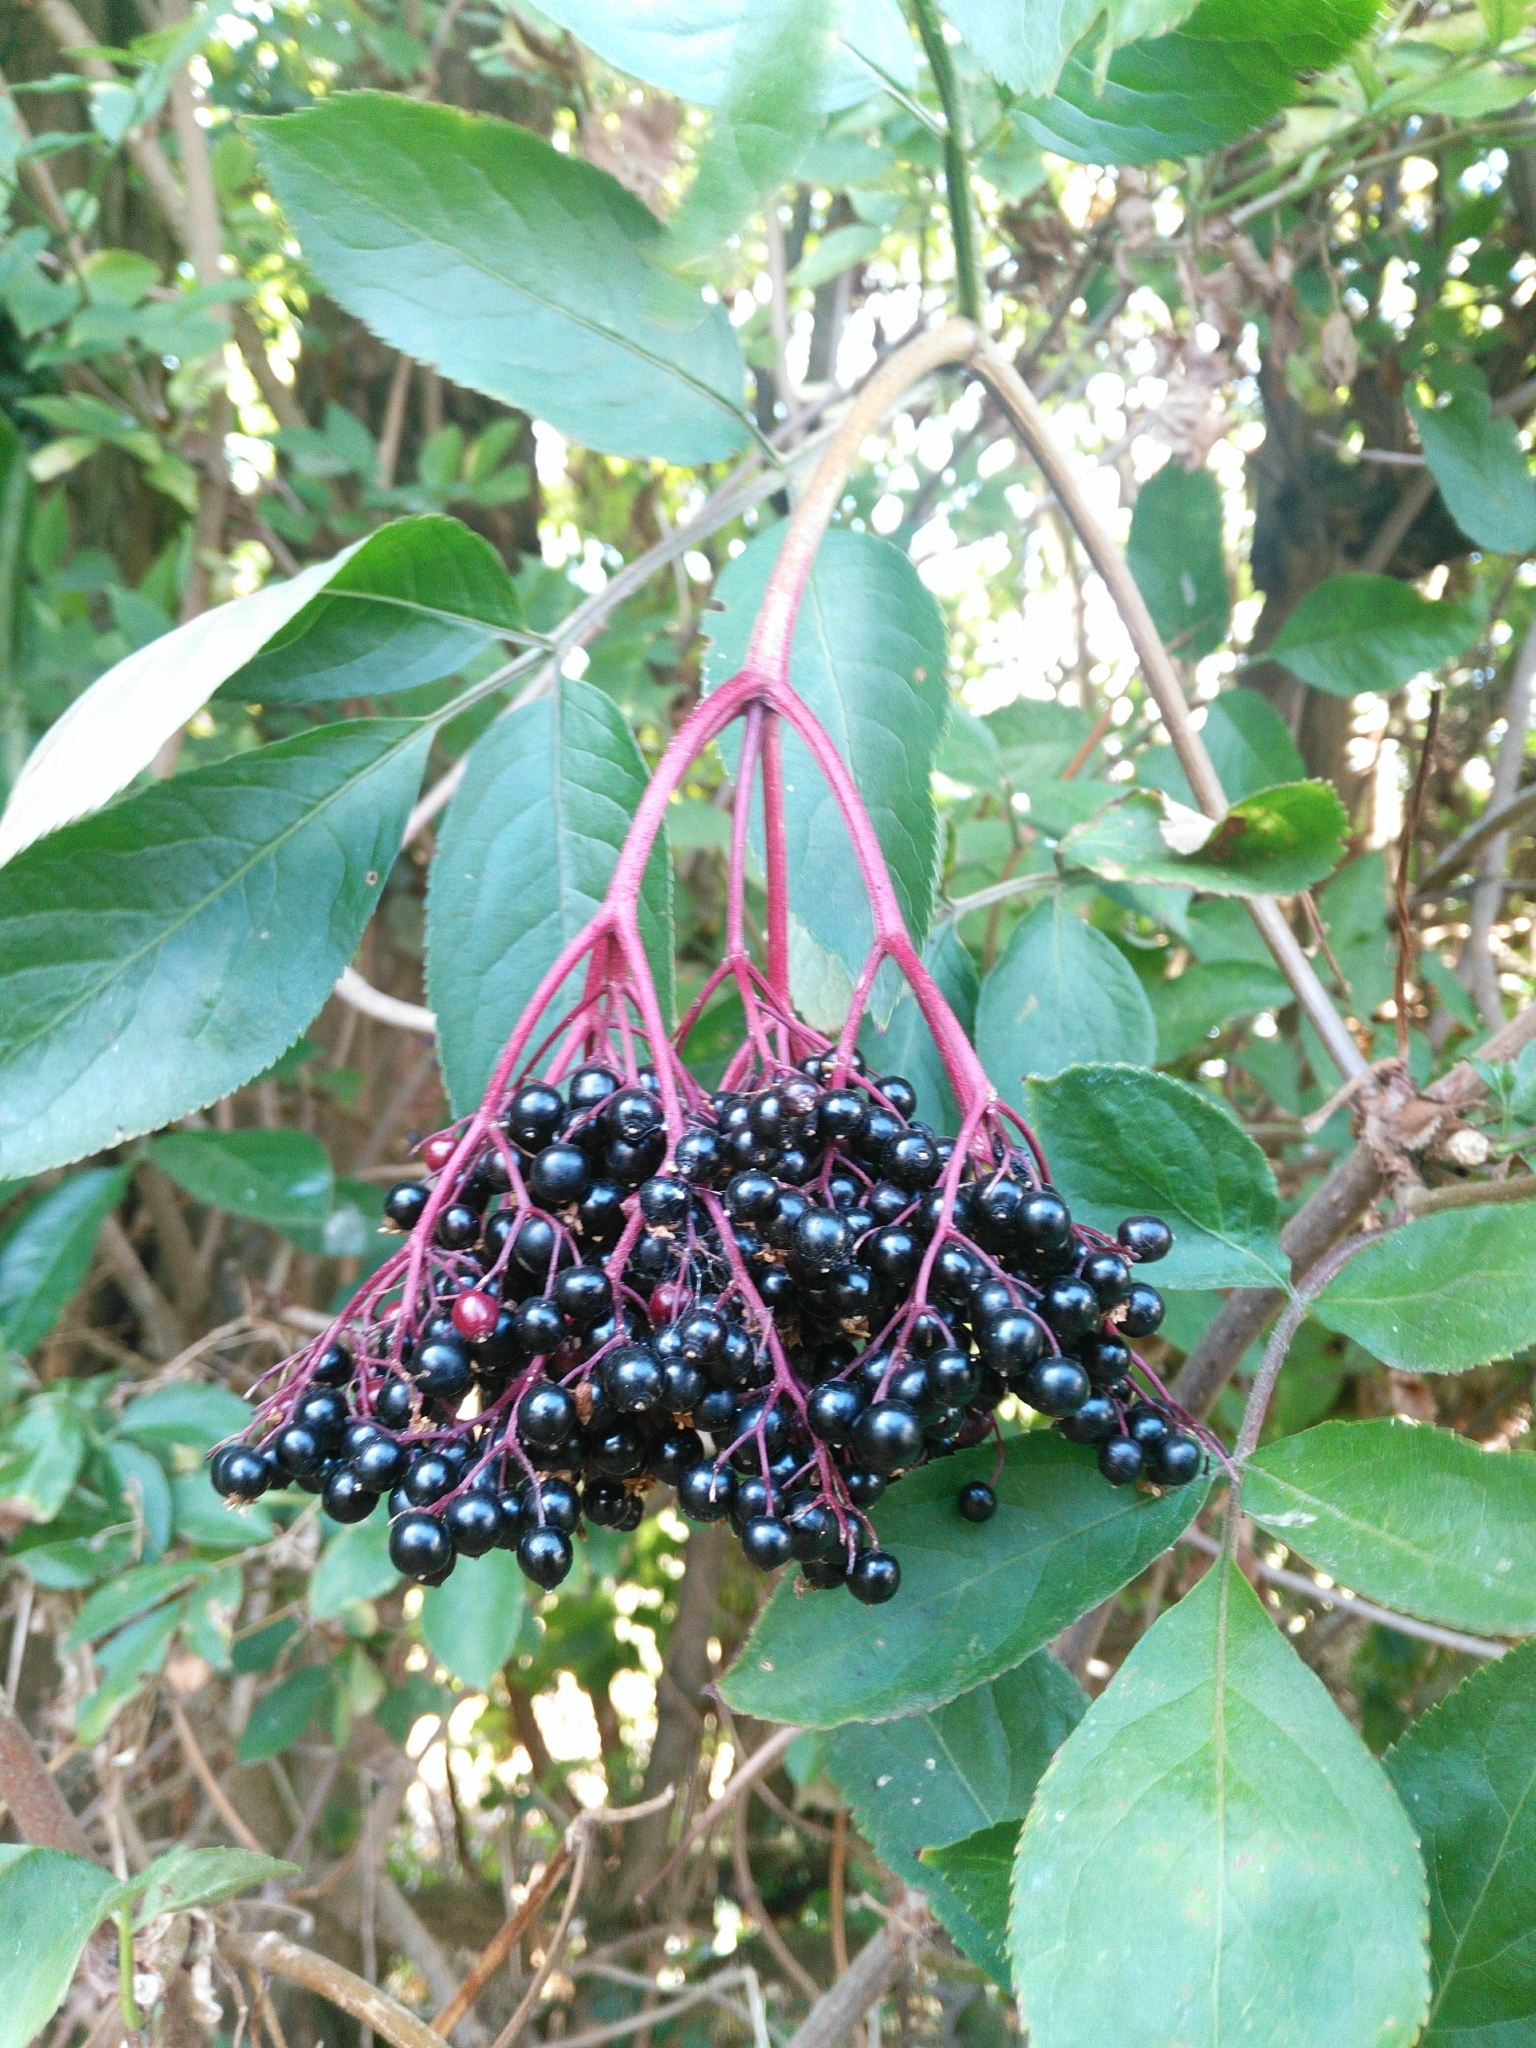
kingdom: Plantae
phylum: Tracheophyta
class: Magnoliopsida
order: Dipsacales
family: Viburnaceae
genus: Sambucus
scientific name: Sambucus nigra
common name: Elder
